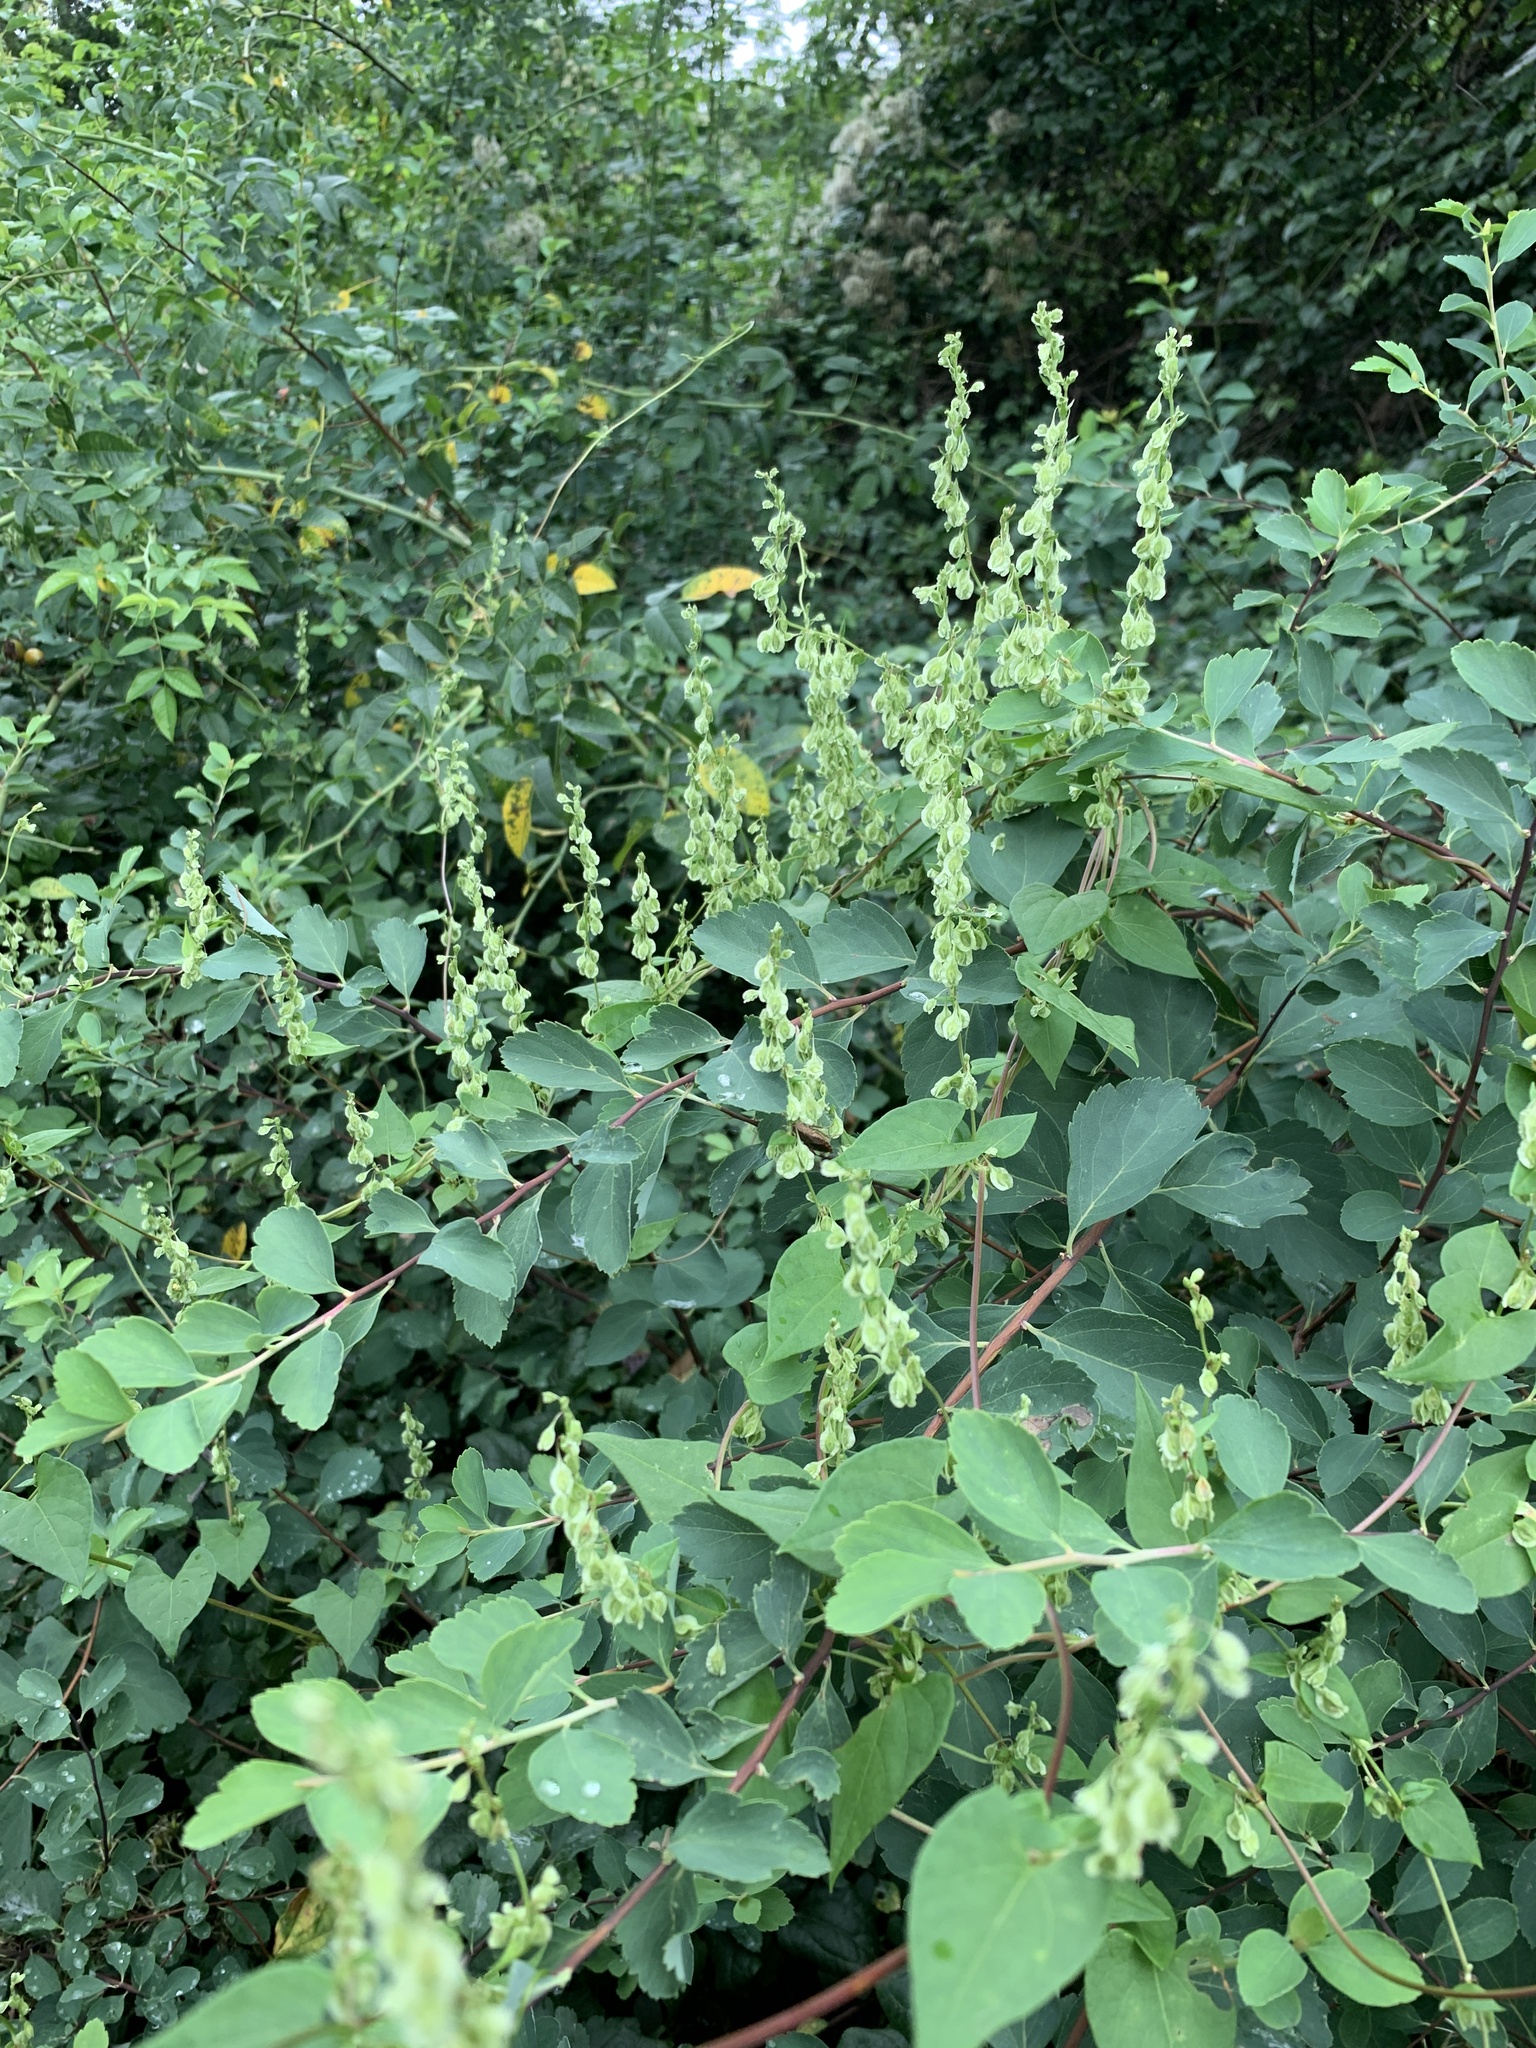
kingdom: Plantae
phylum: Tracheophyta
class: Magnoliopsida
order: Caryophyllales
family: Polygonaceae
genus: Fallopia
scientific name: Fallopia dumetorum
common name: Copse-bindweed
